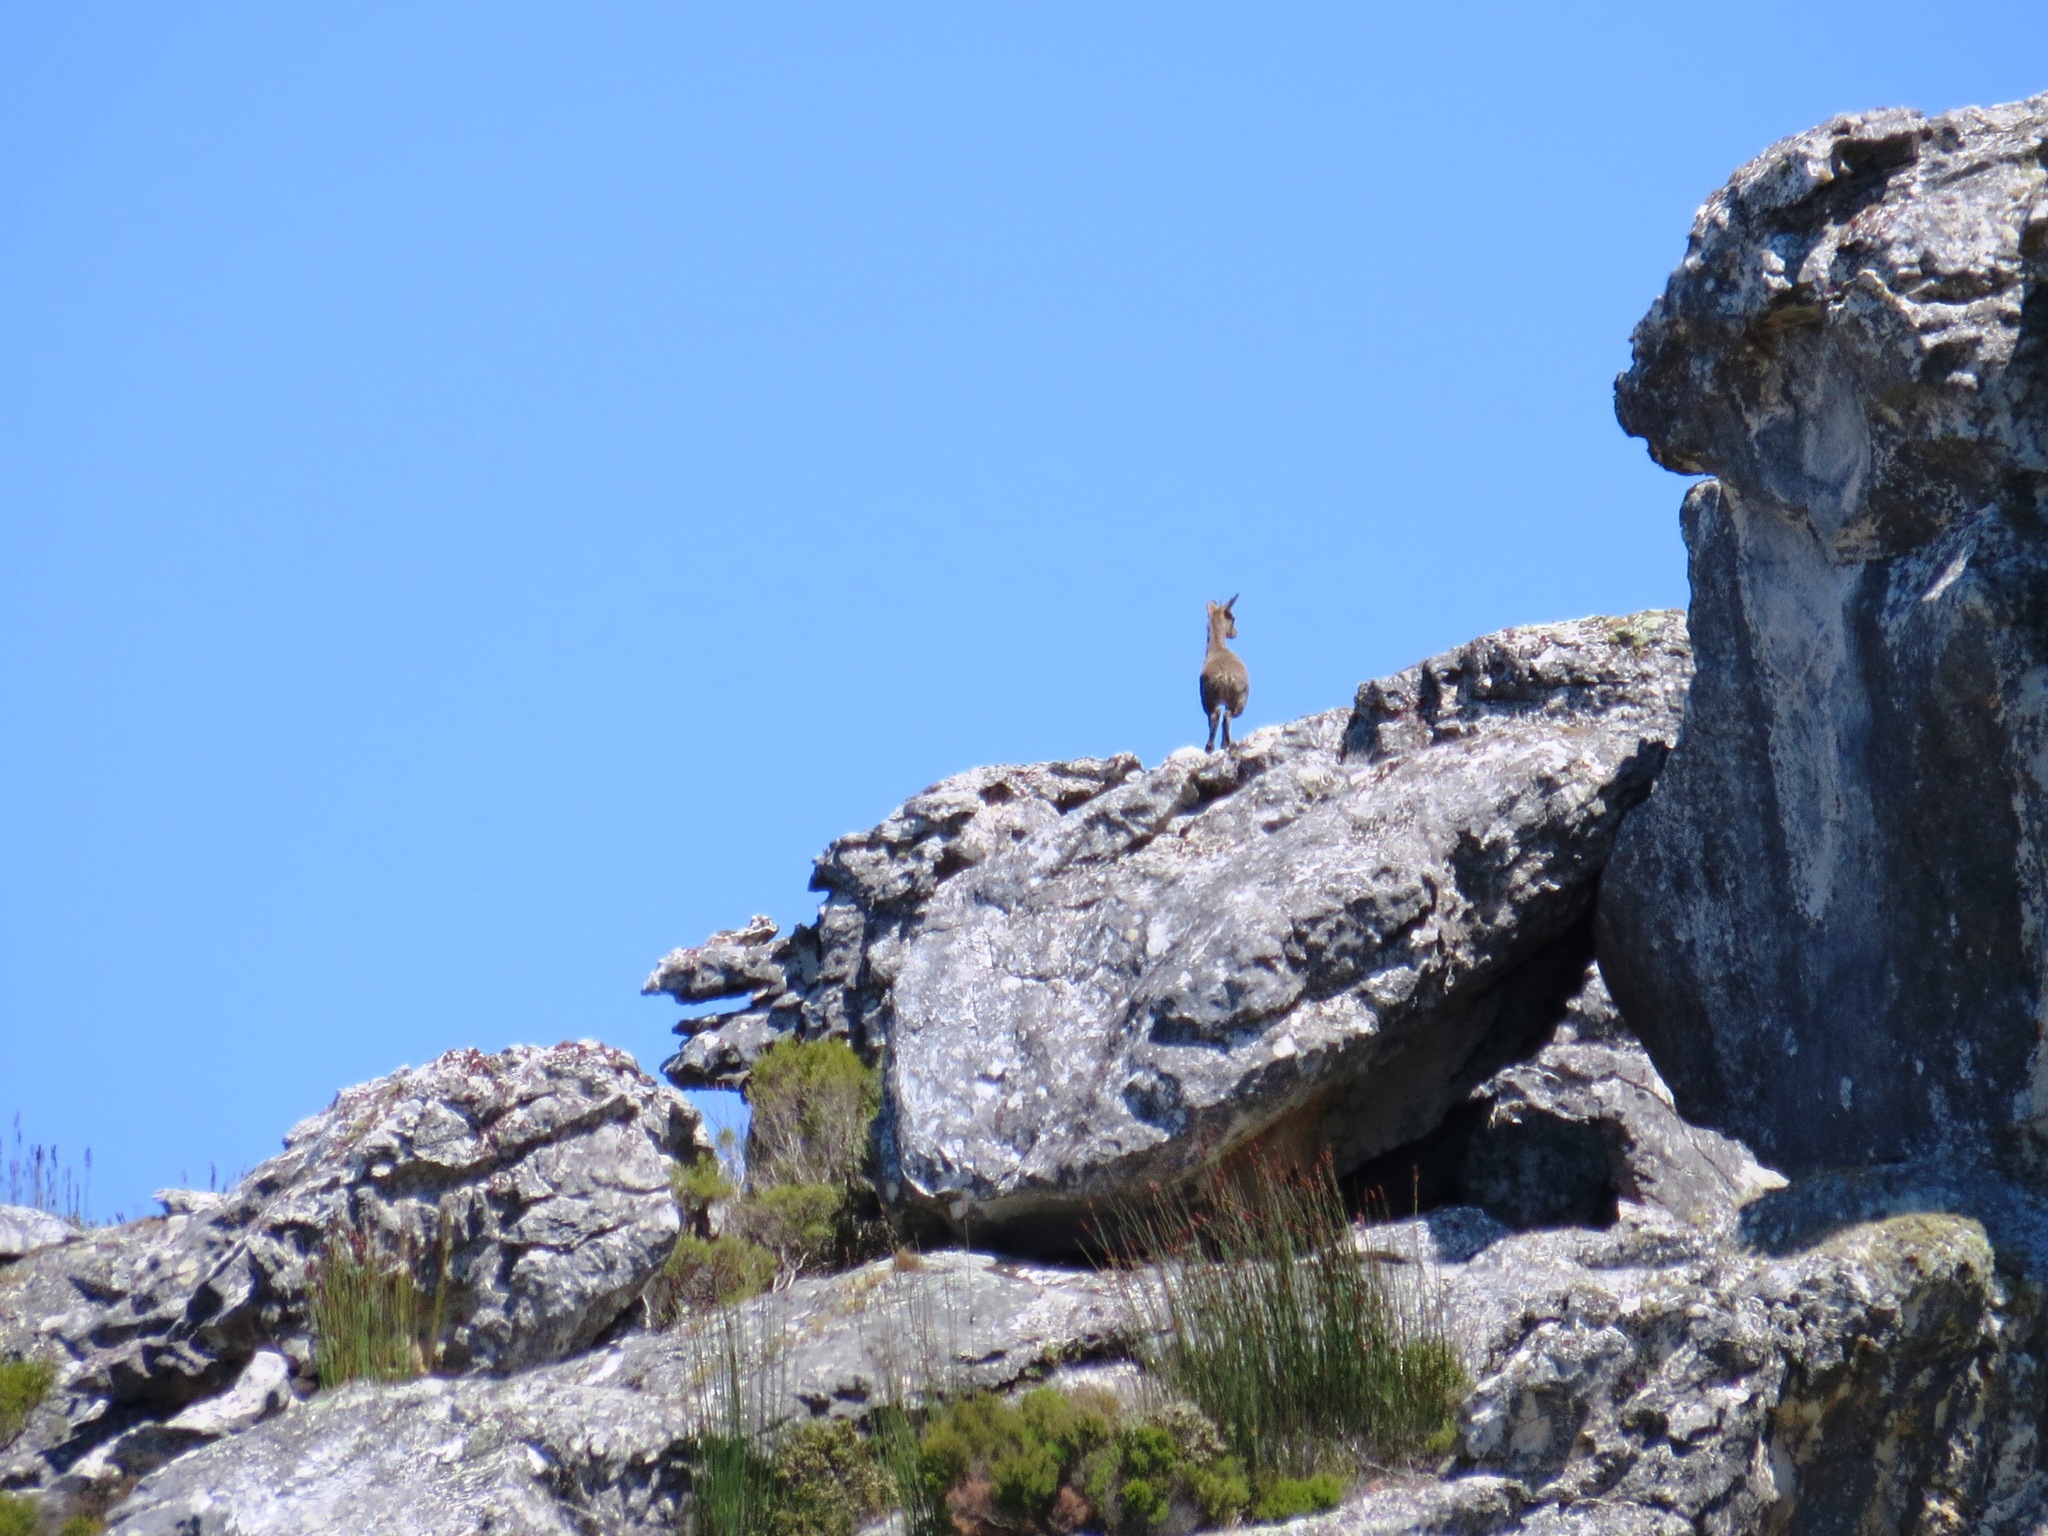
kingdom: Animalia
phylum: Chordata
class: Mammalia
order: Artiodactyla
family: Bovidae
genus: Oreotragus
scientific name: Oreotragus oreotragus
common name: Klipspringer
